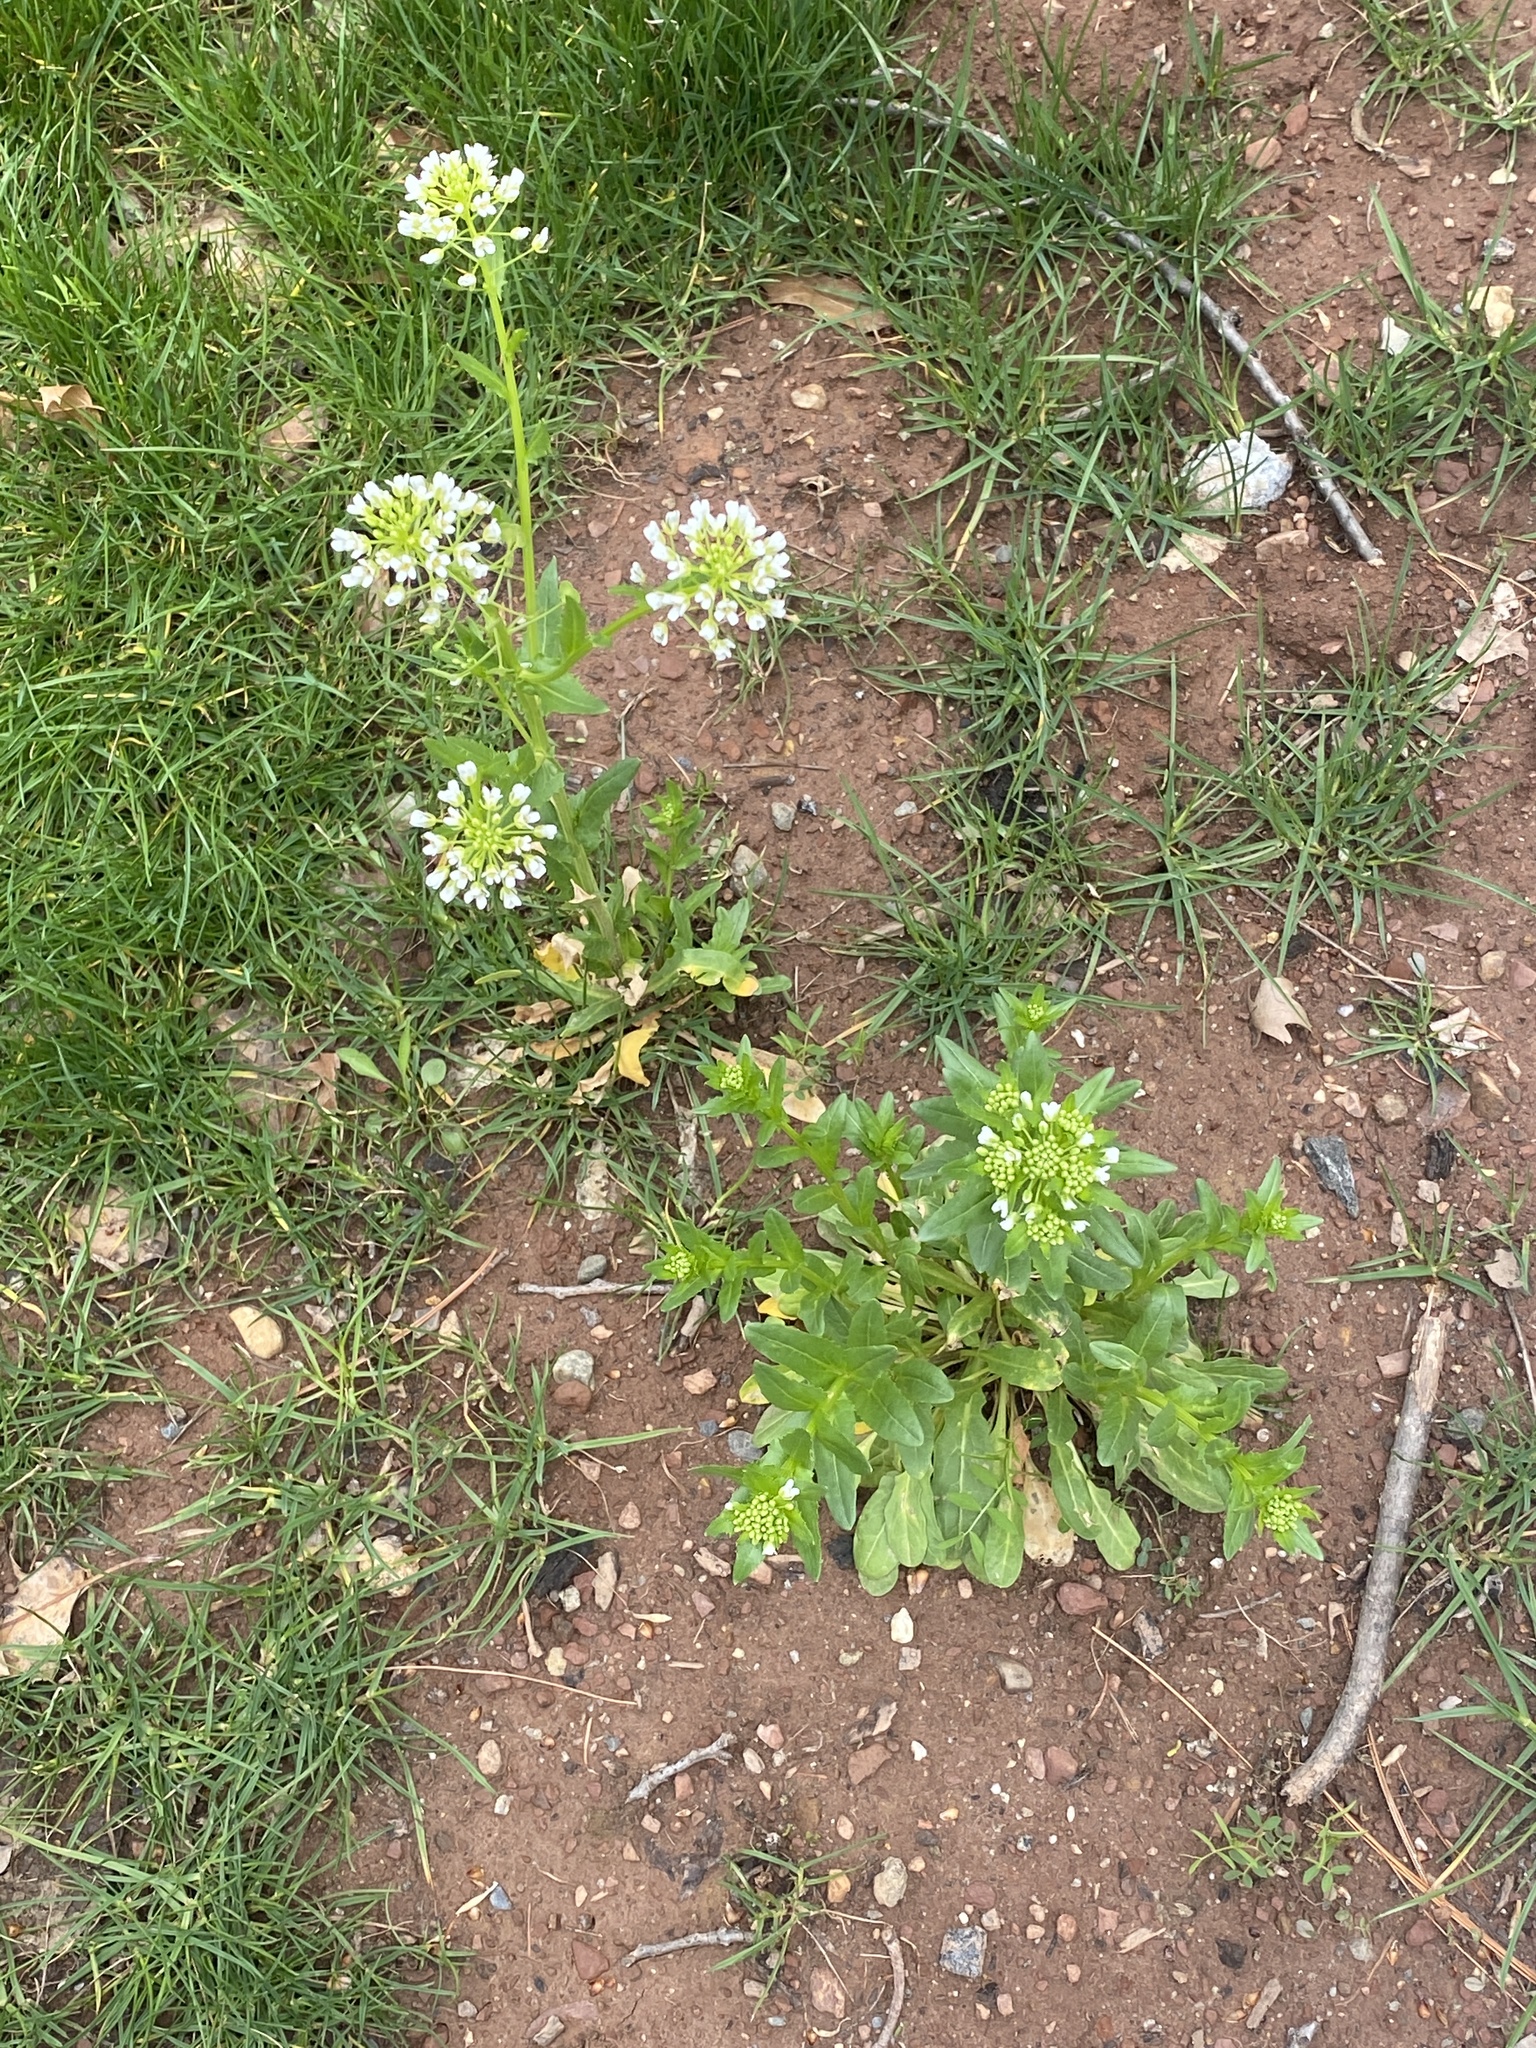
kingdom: Plantae
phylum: Tracheophyta
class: Magnoliopsida
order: Brassicales
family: Brassicaceae
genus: Thlaspi
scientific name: Thlaspi arvense
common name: Field pennycress
